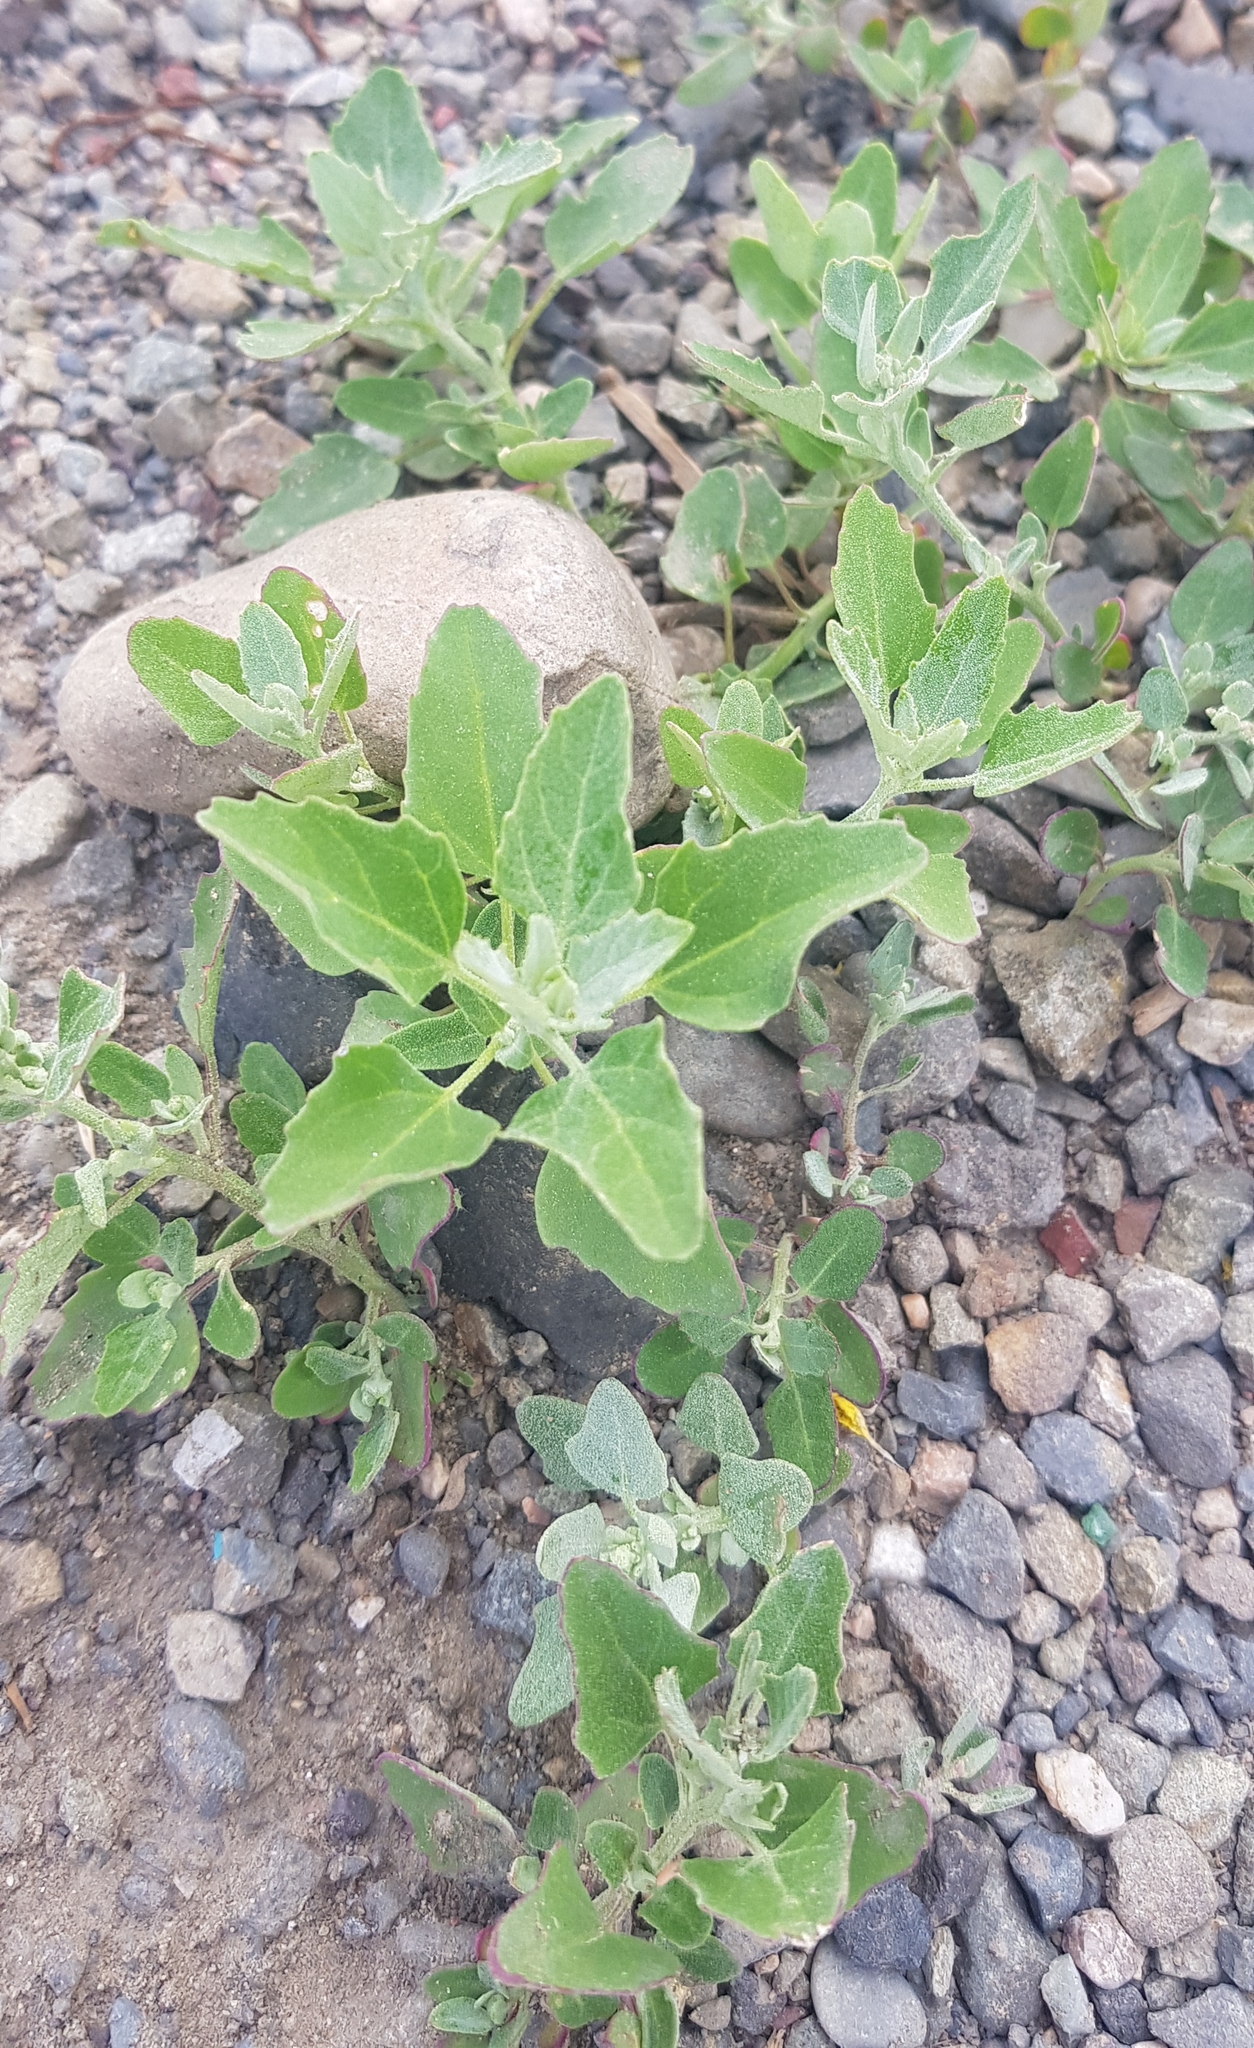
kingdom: Plantae
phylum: Tracheophyta
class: Magnoliopsida
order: Caryophyllales
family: Amaranthaceae
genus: Chenopodium
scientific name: Chenopodium album
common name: Fat-hen
